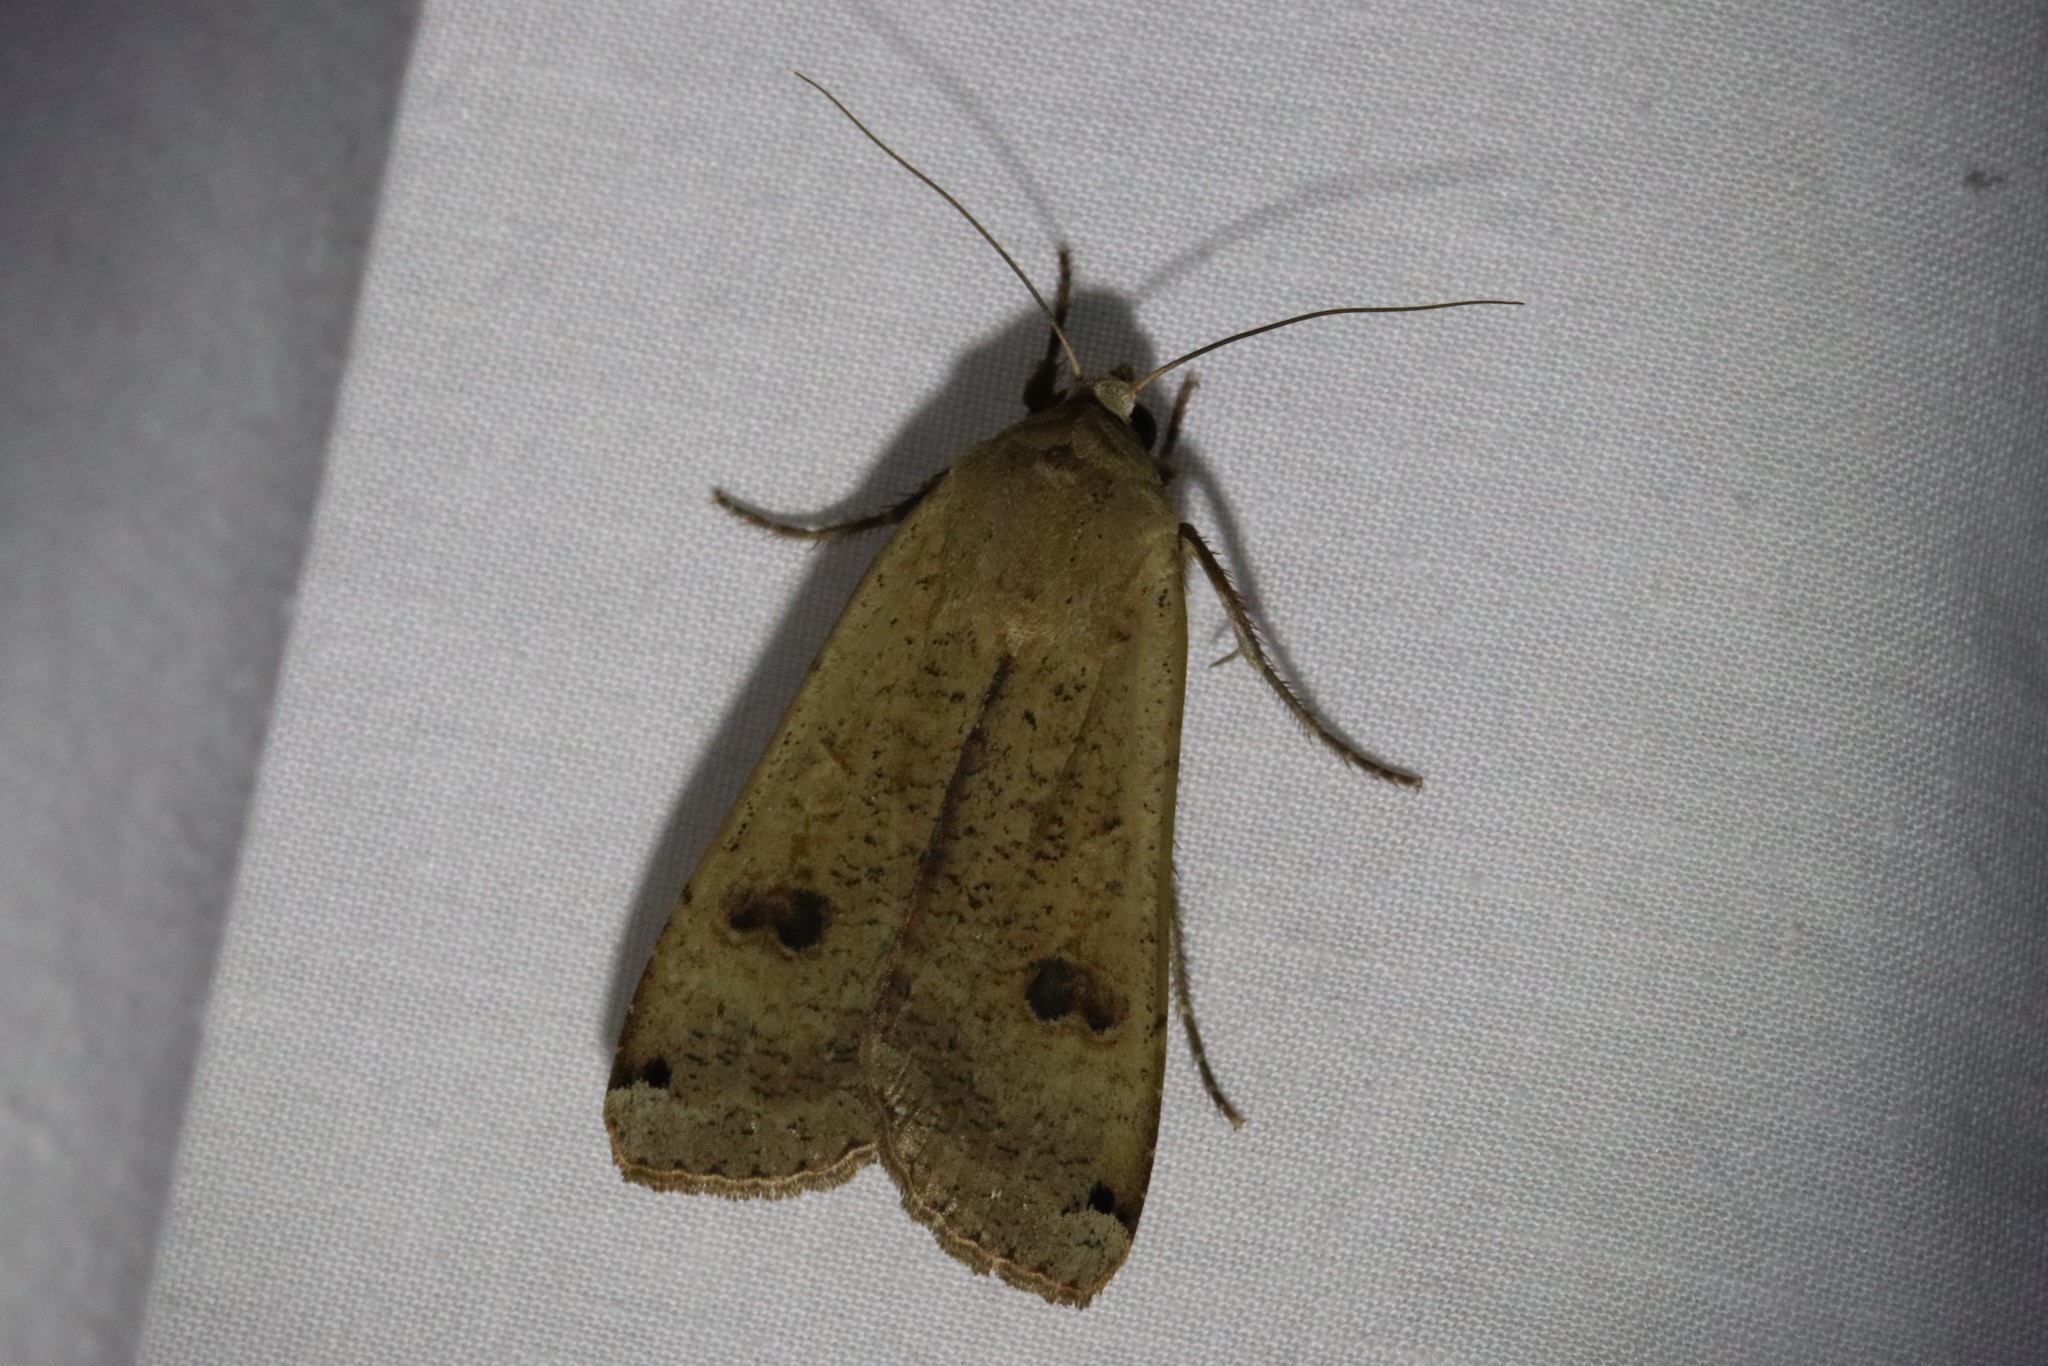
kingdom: Animalia
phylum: Arthropoda
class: Insecta
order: Lepidoptera
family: Noctuidae
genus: Noctua
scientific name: Noctua pronuba
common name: Large yellow underwing
